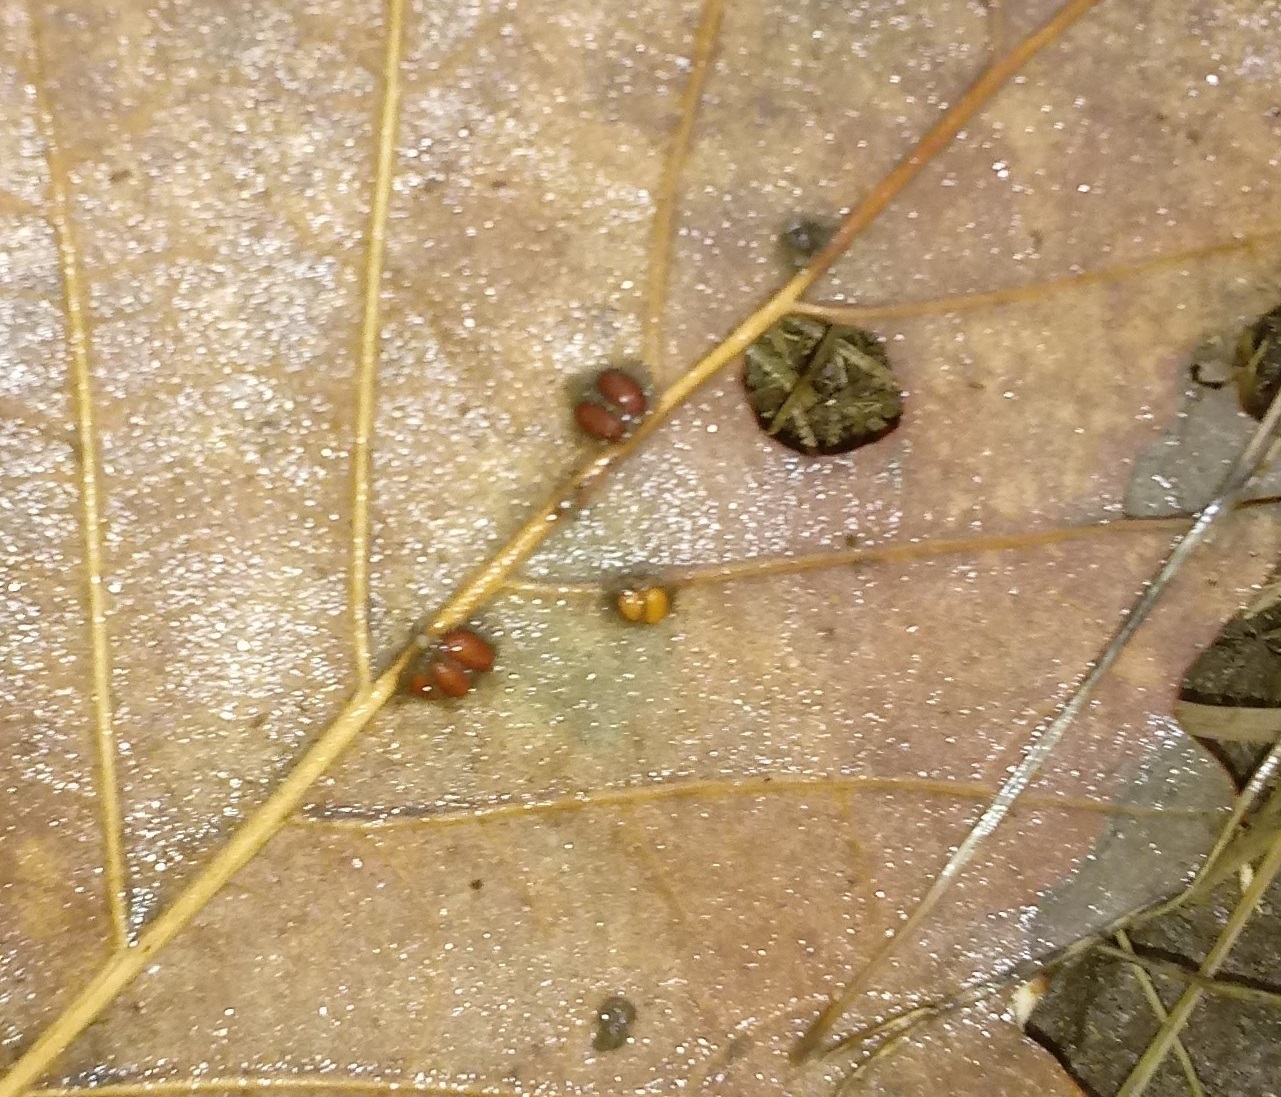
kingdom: Animalia
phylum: Arthropoda
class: Insecta
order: Hymenoptera
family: Cynipidae
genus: Andricus
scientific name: Andricus Druon ignotum
